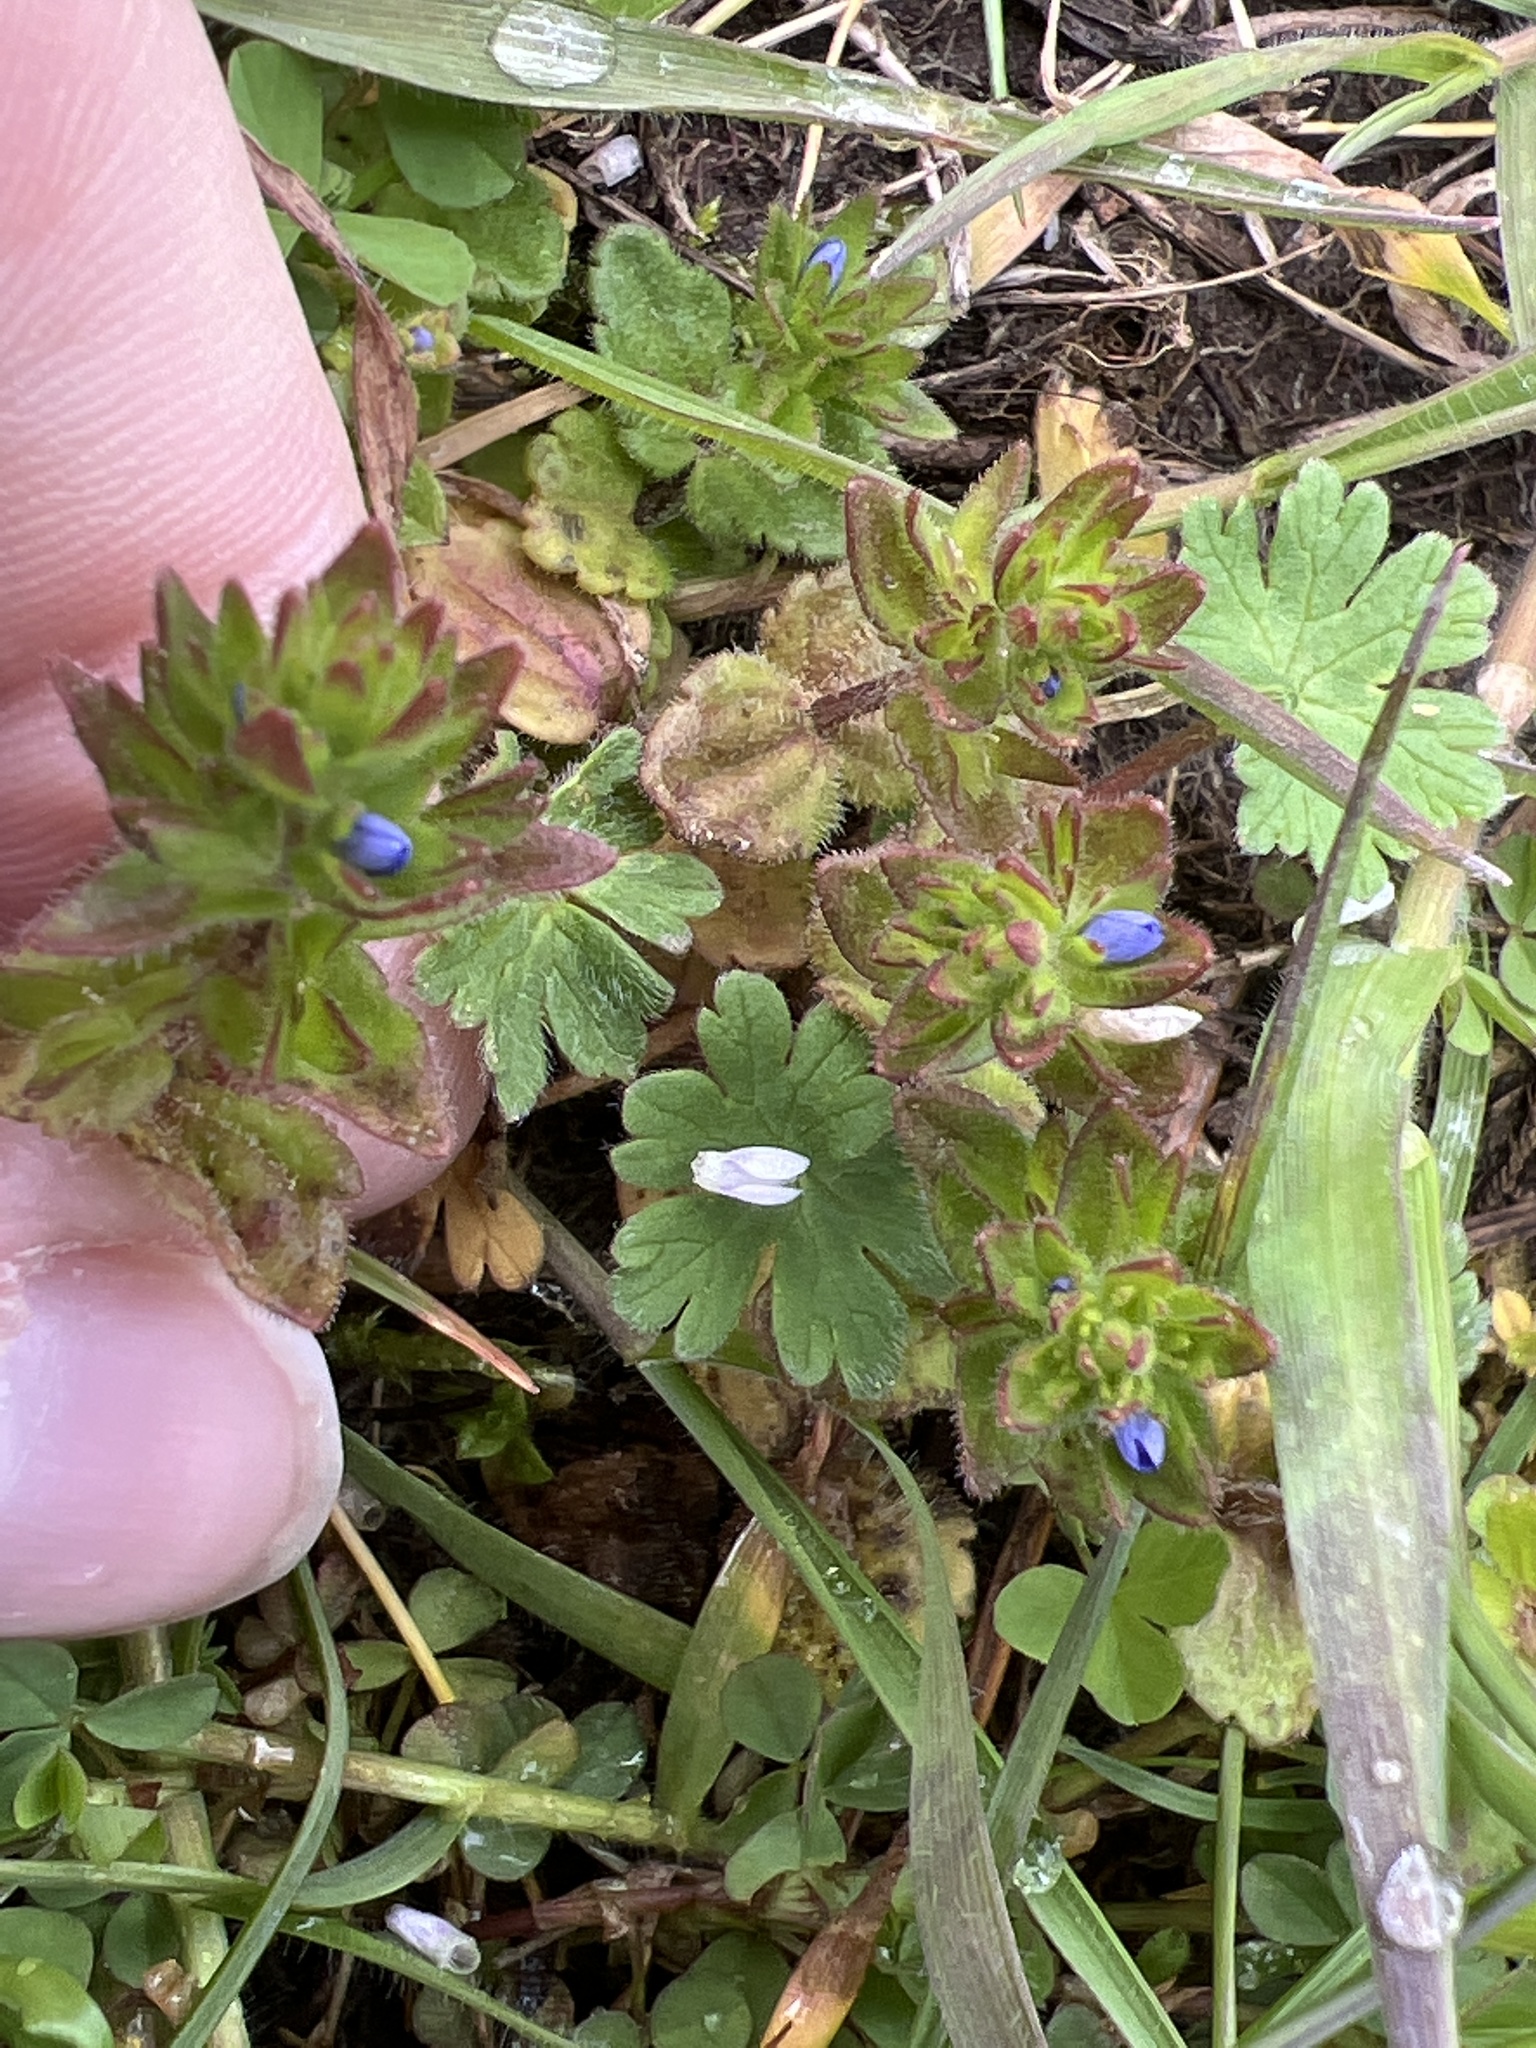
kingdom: Plantae
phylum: Tracheophyta
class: Magnoliopsida
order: Lamiales
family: Plantaginaceae
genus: Veronica
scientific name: Veronica arvensis
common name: Corn speedwell
